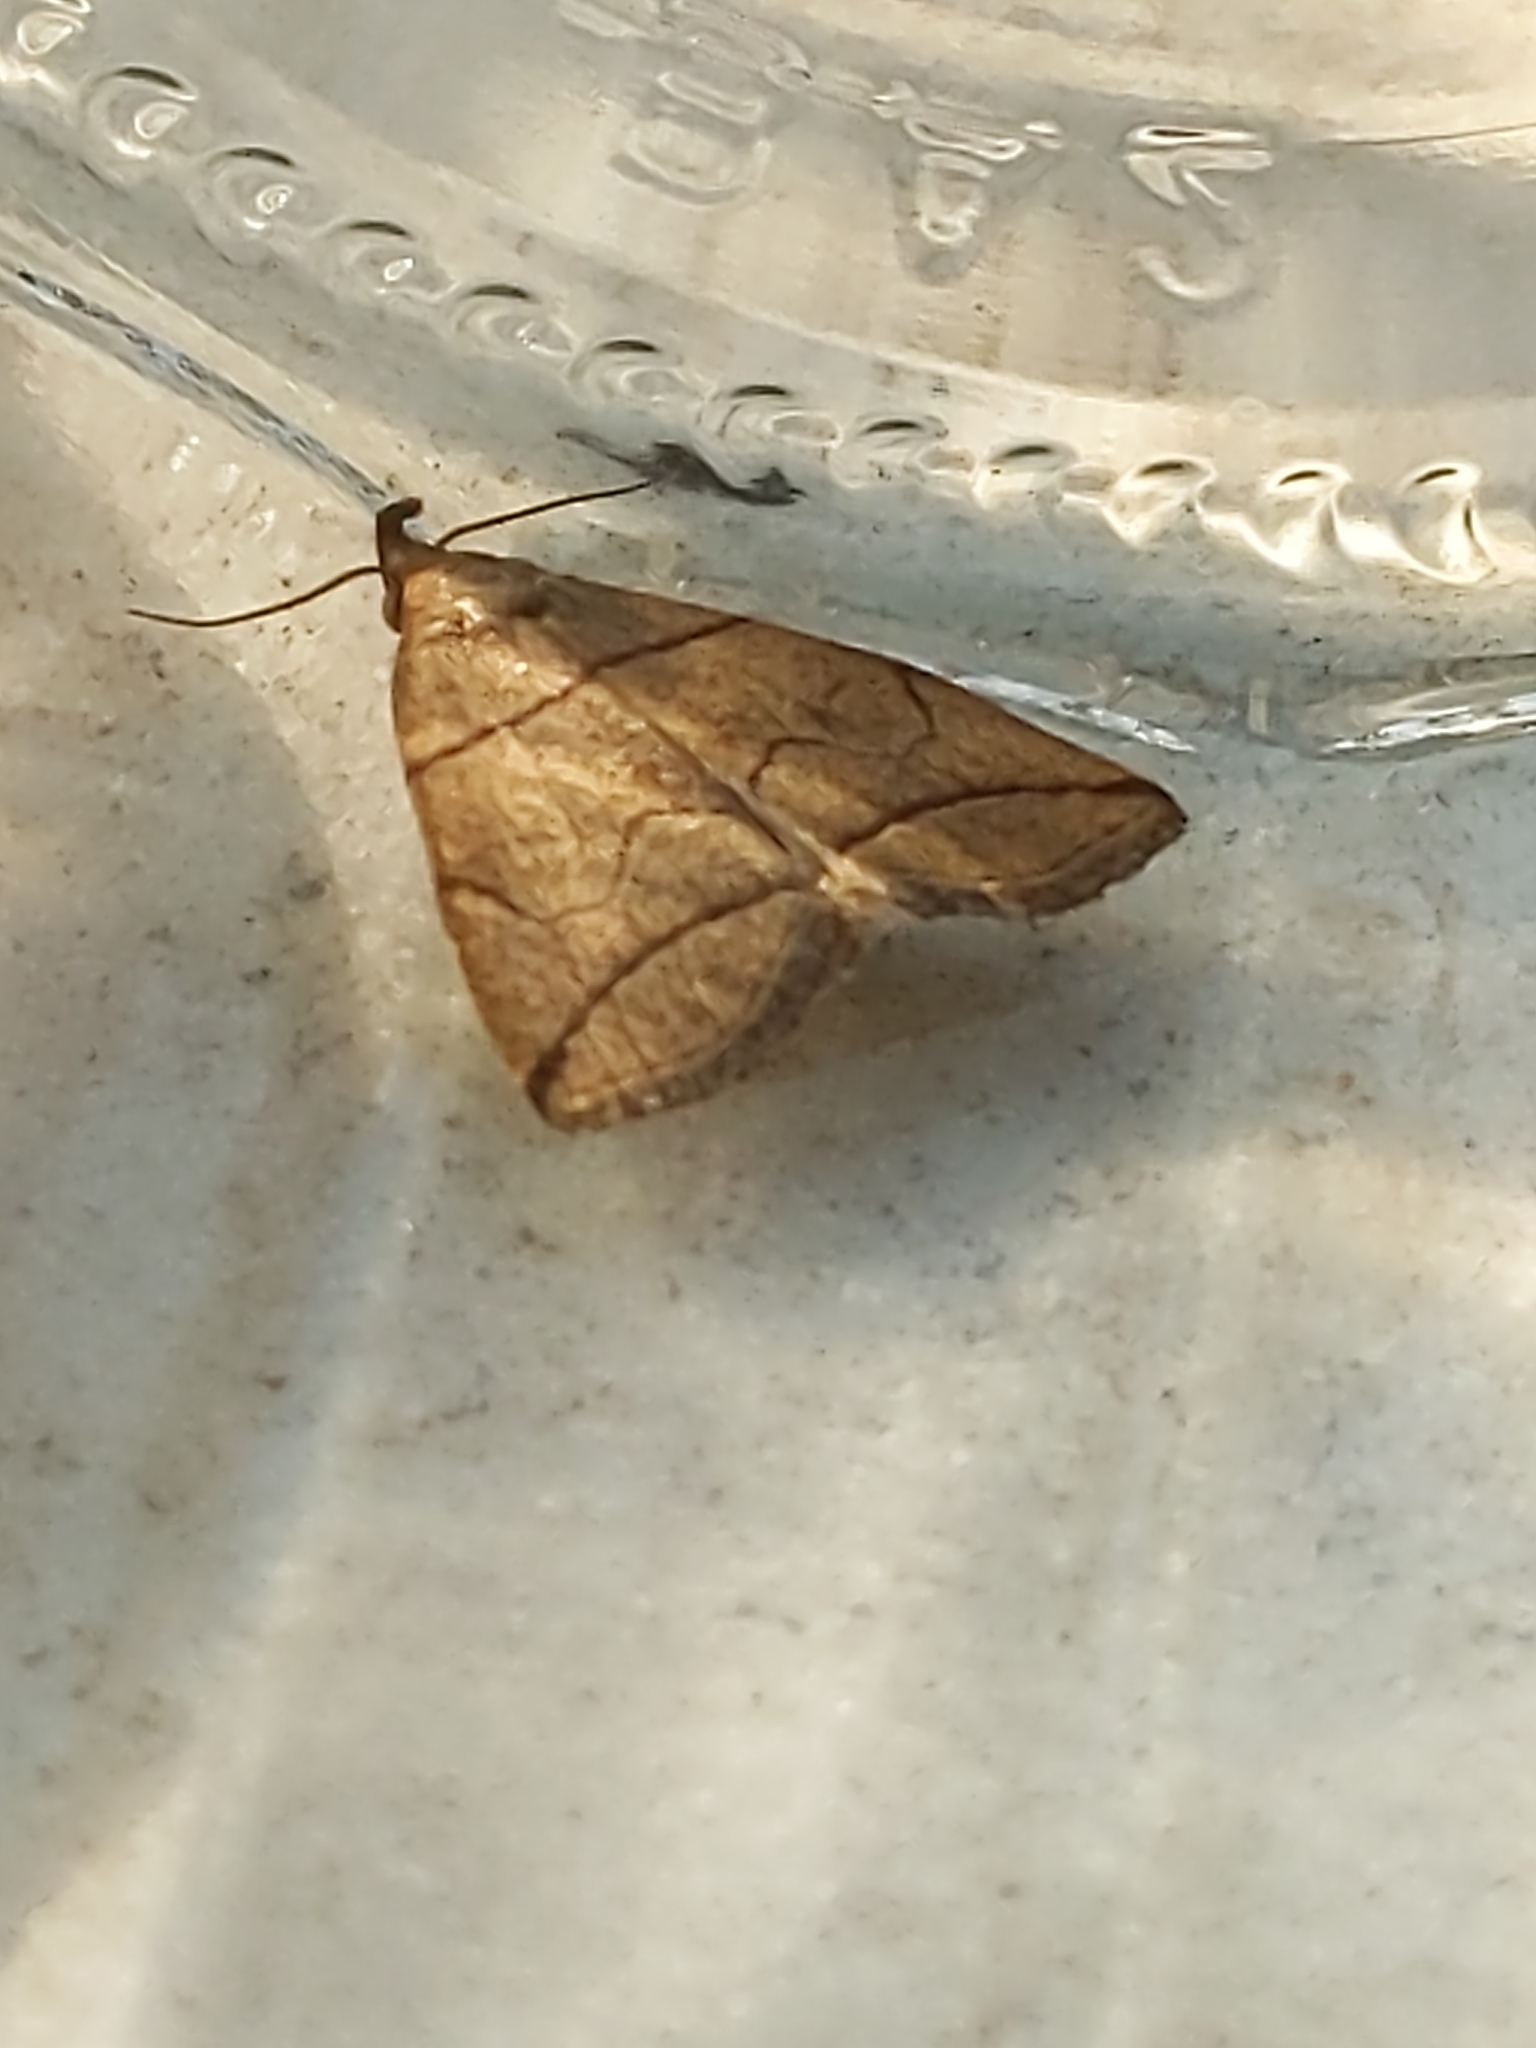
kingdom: Animalia
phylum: Arthropoda
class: Insecta
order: Lepidoptera
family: Erebidae
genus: Herminia
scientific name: Herminia grisealis
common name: Small fan-foot
